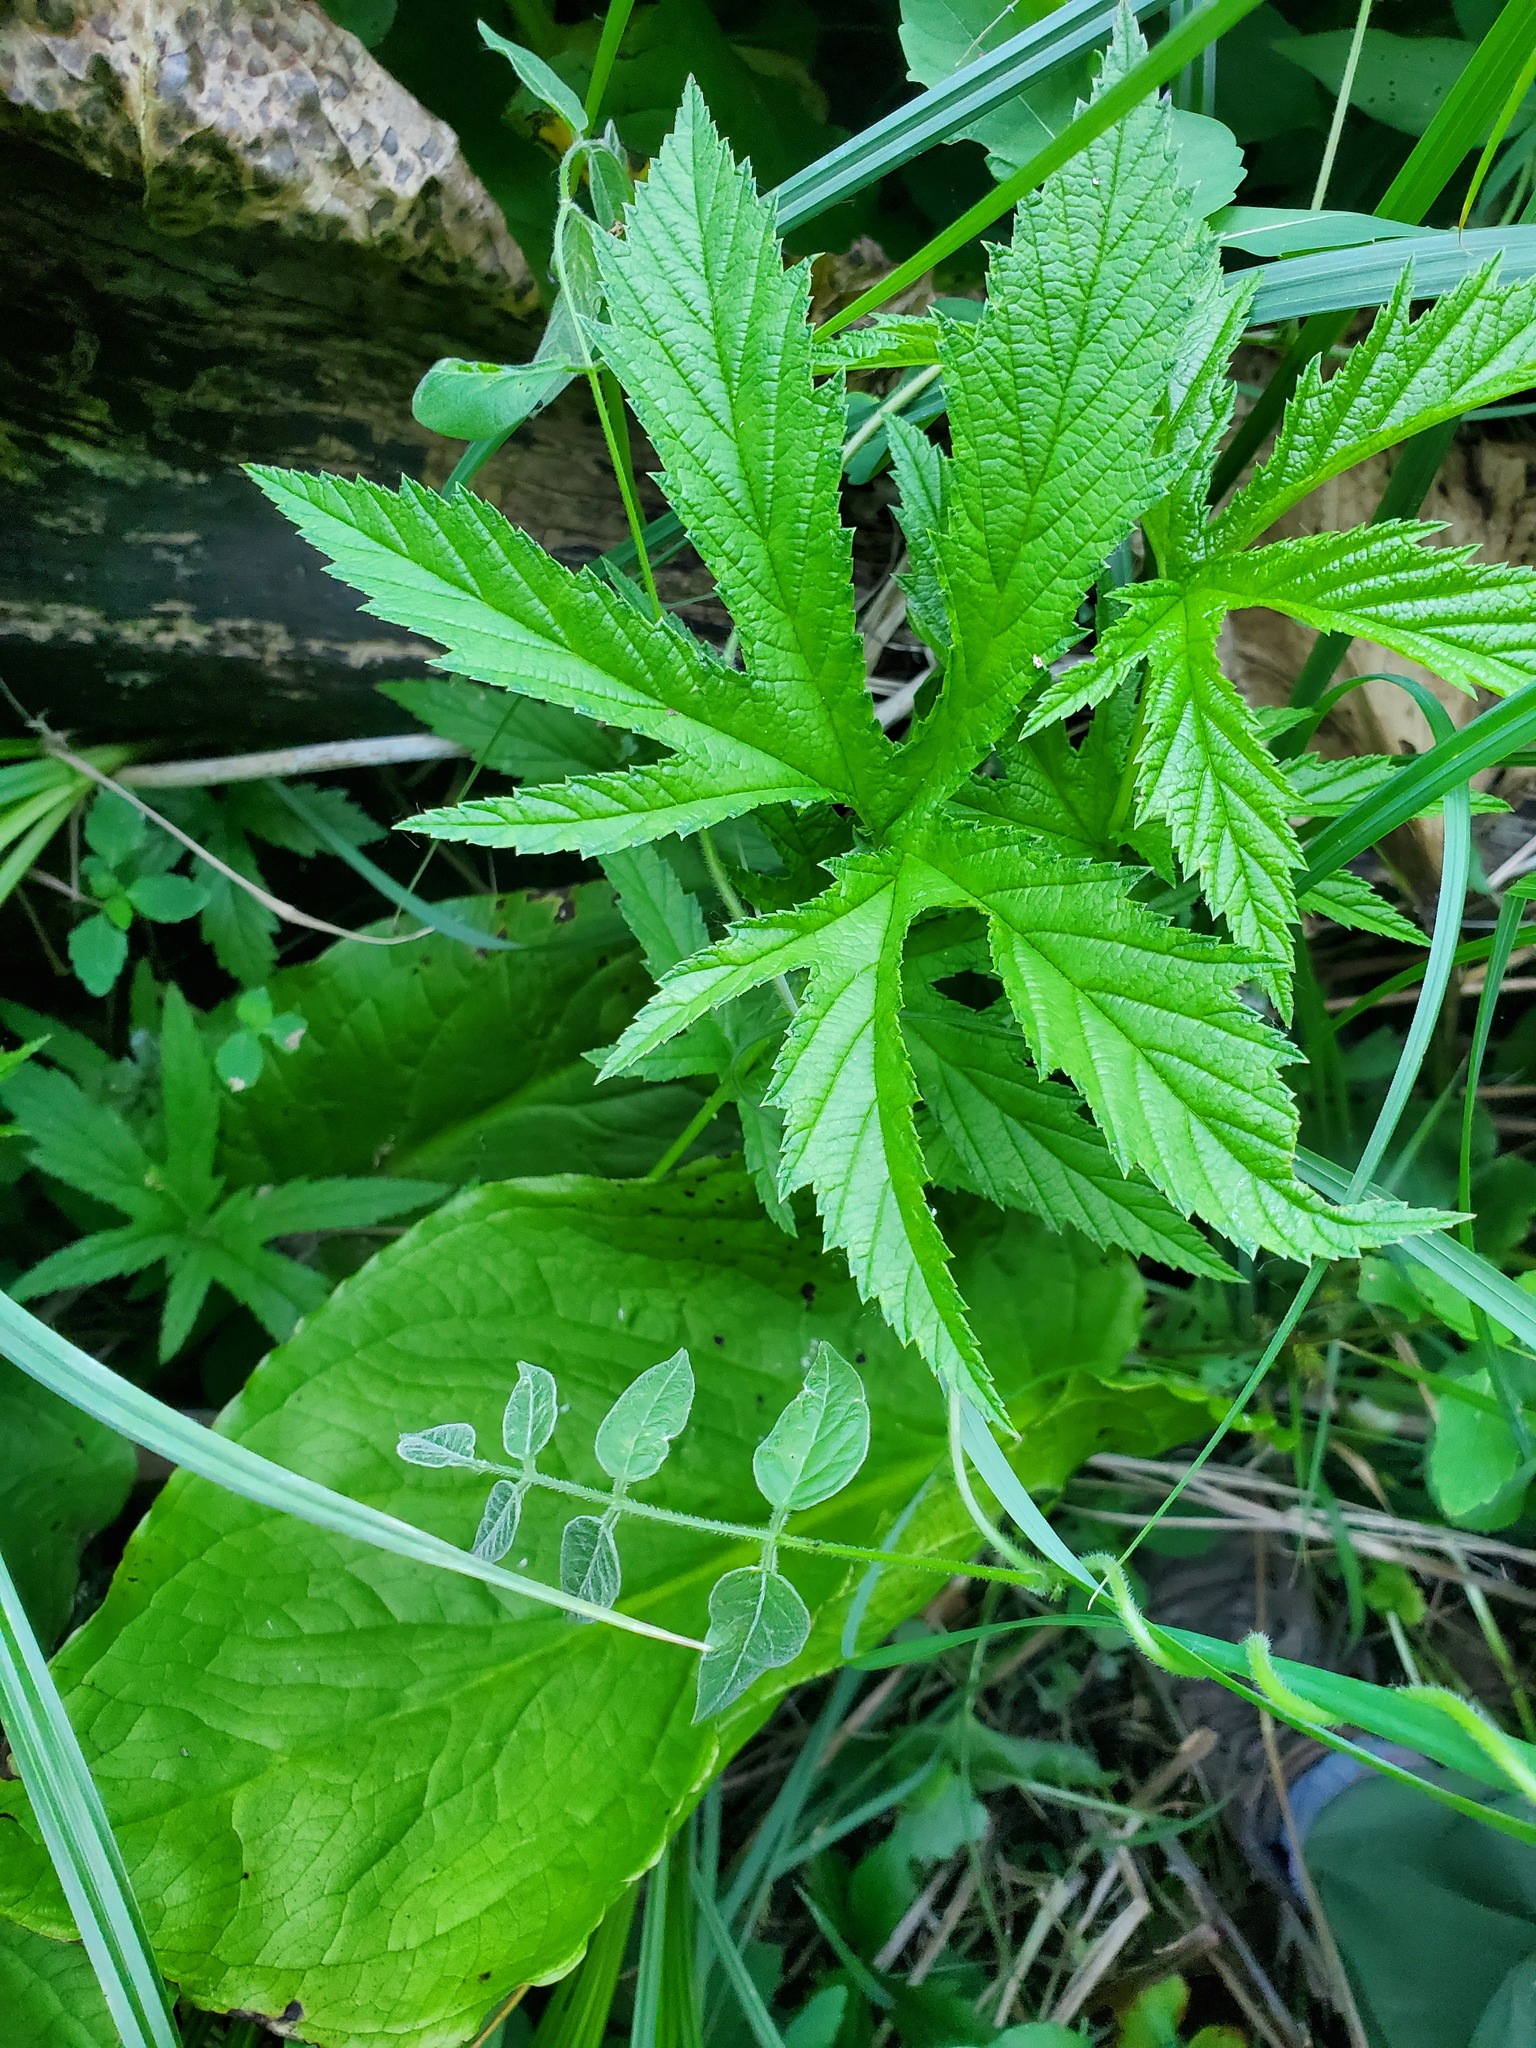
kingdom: Plantae
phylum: Tracheophyta
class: Magnoliopsida
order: Fabales
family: Fabaceae
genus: Apios
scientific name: Apios americana
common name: American potato-bean
